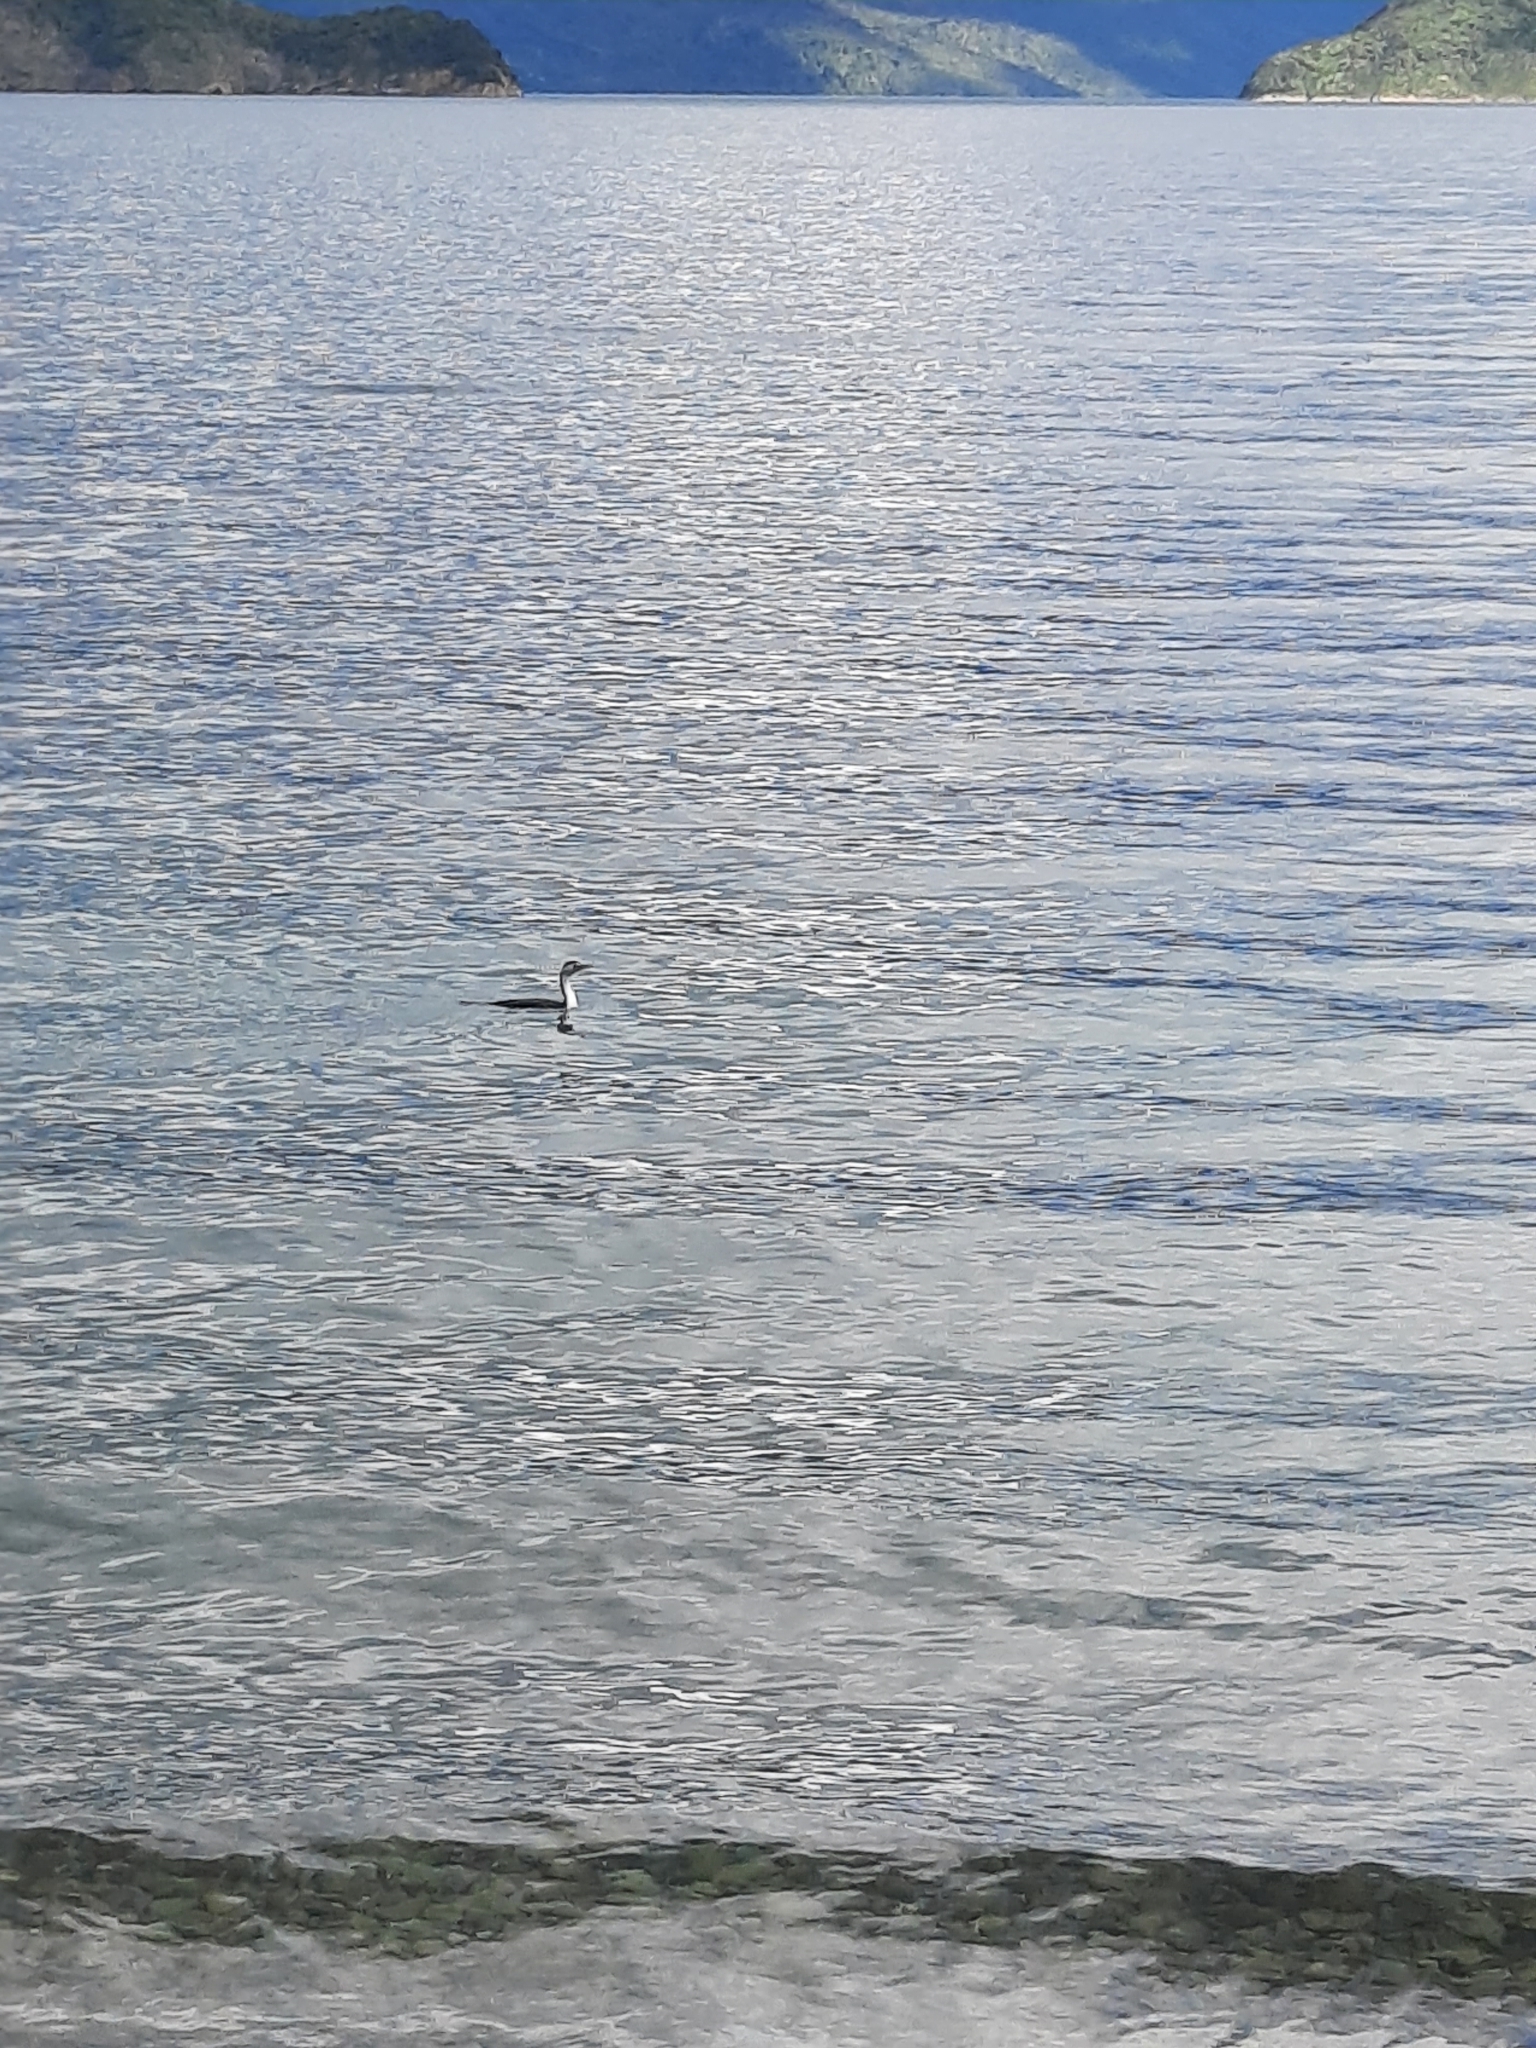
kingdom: Animalia
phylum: Chordata
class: Aves
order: Suliformes
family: Phalacrocoracidae
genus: Phalacrocorax
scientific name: Phalacrocorax varius
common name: Pied cormorant
